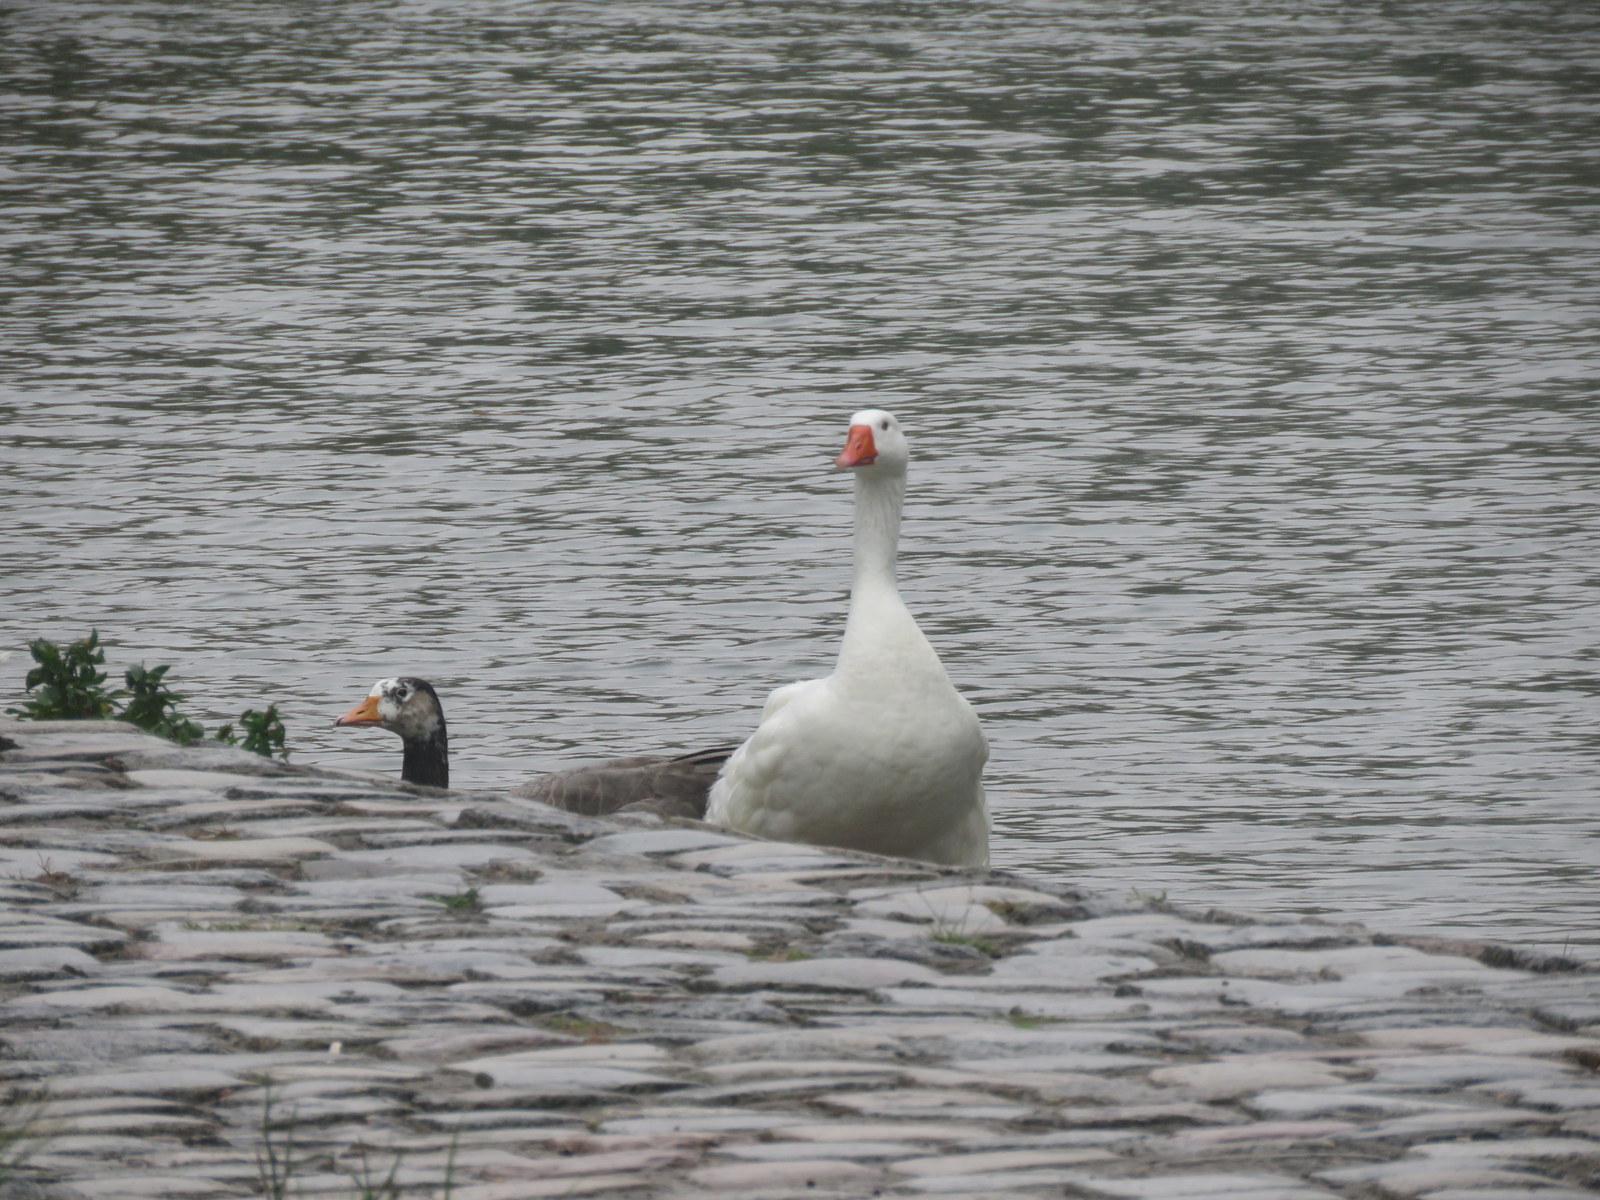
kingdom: Animalia
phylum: Chordata
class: Aves
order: Anseriformes
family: Anatidae
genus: Anser
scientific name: Anser anser
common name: Greylag goose
